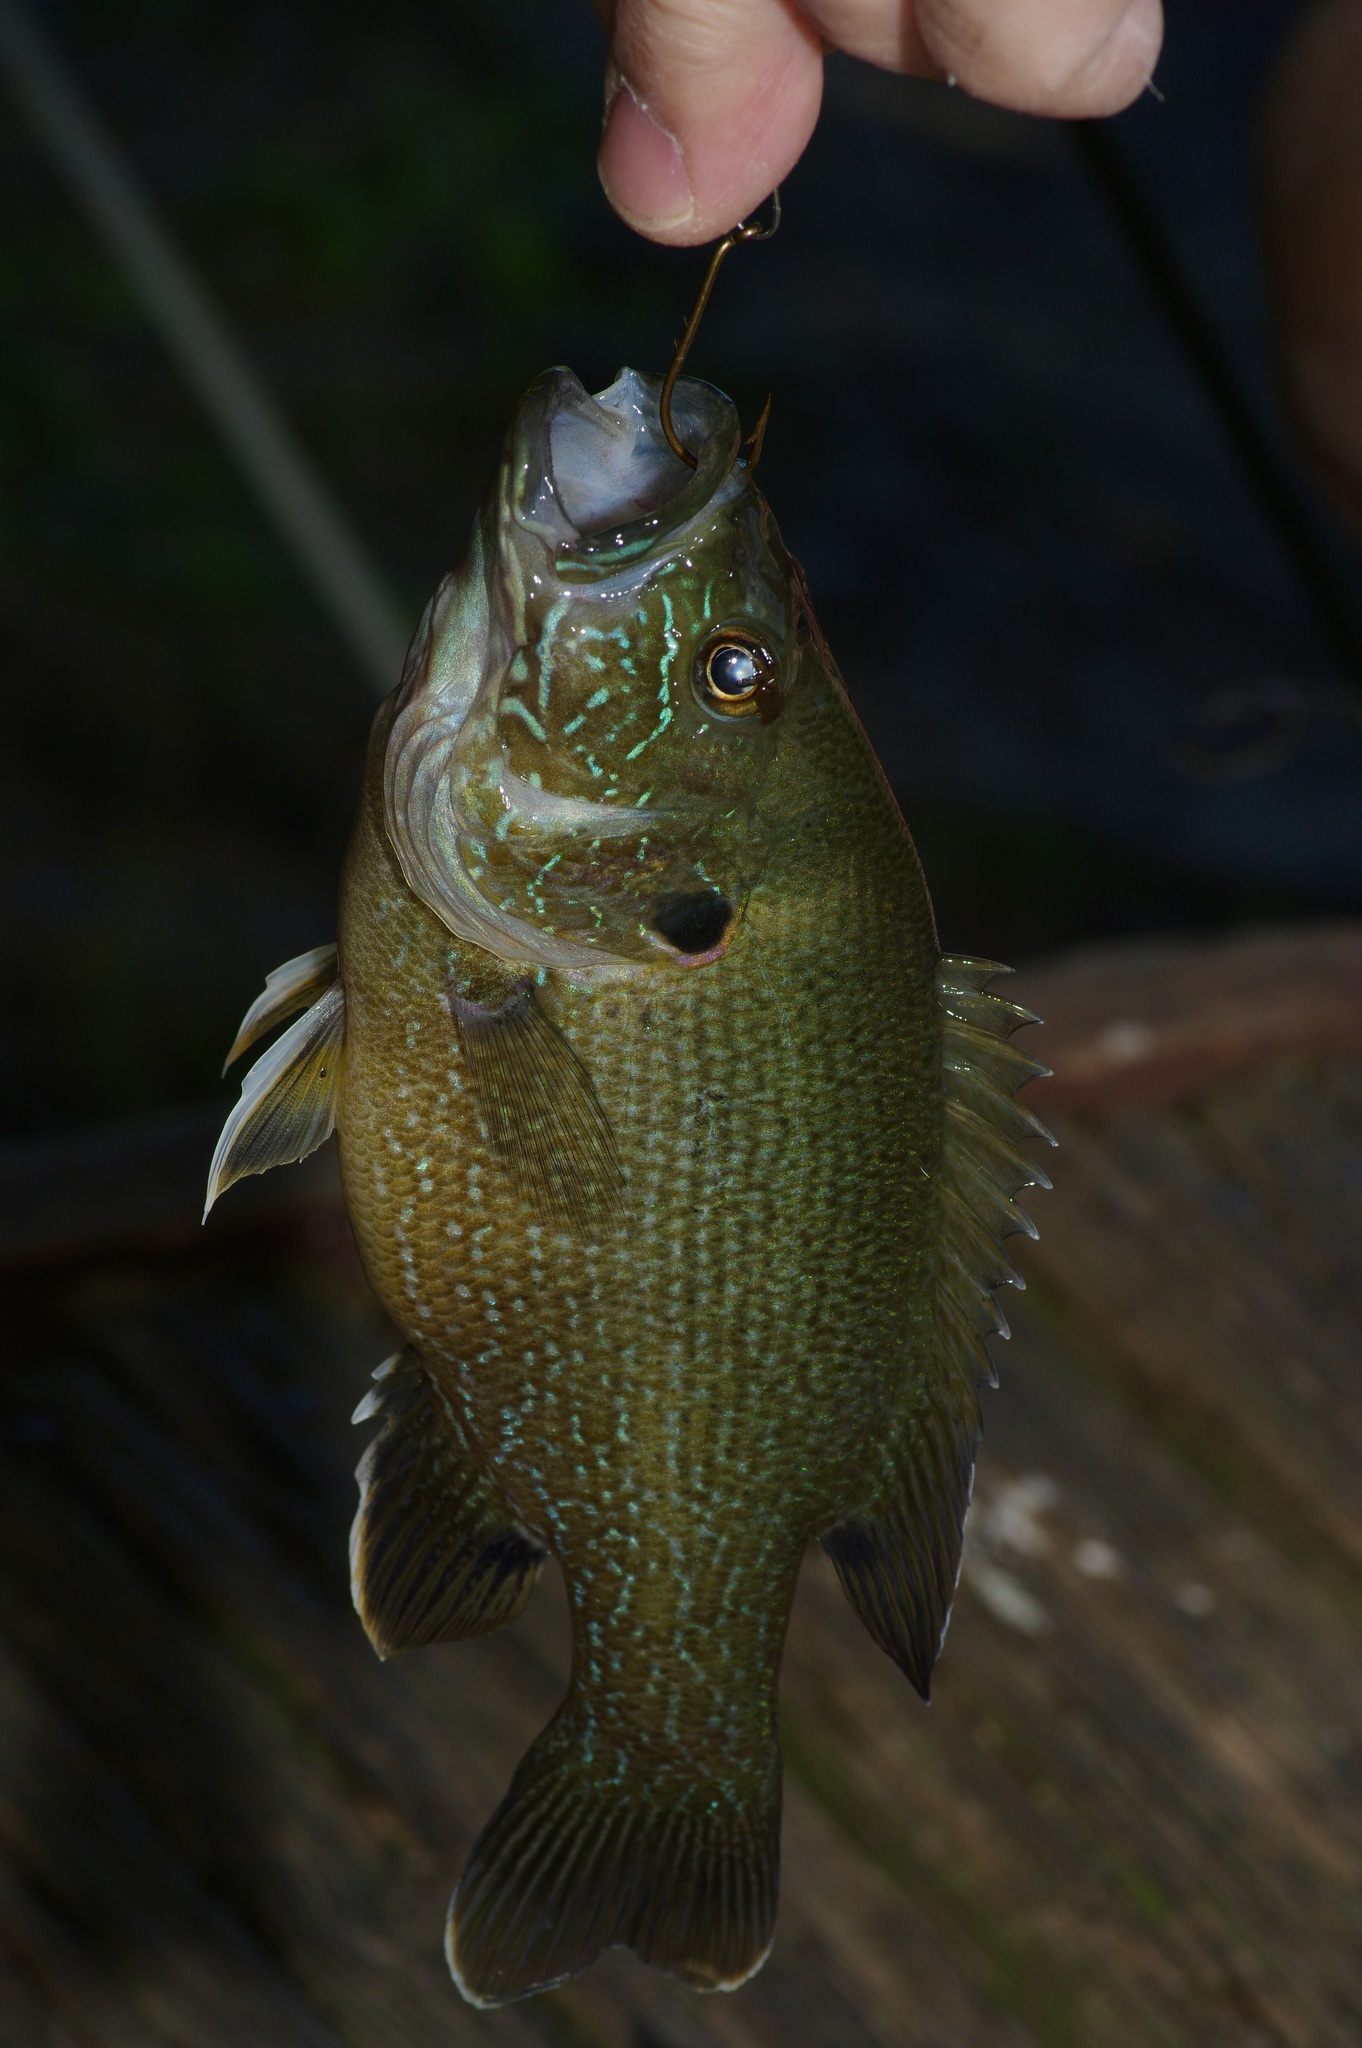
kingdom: Animalia
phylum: Chordata
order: Perciformes
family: Centrarchidae
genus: Lepomis
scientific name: Lepomis cyanellus
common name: Green sunfish
